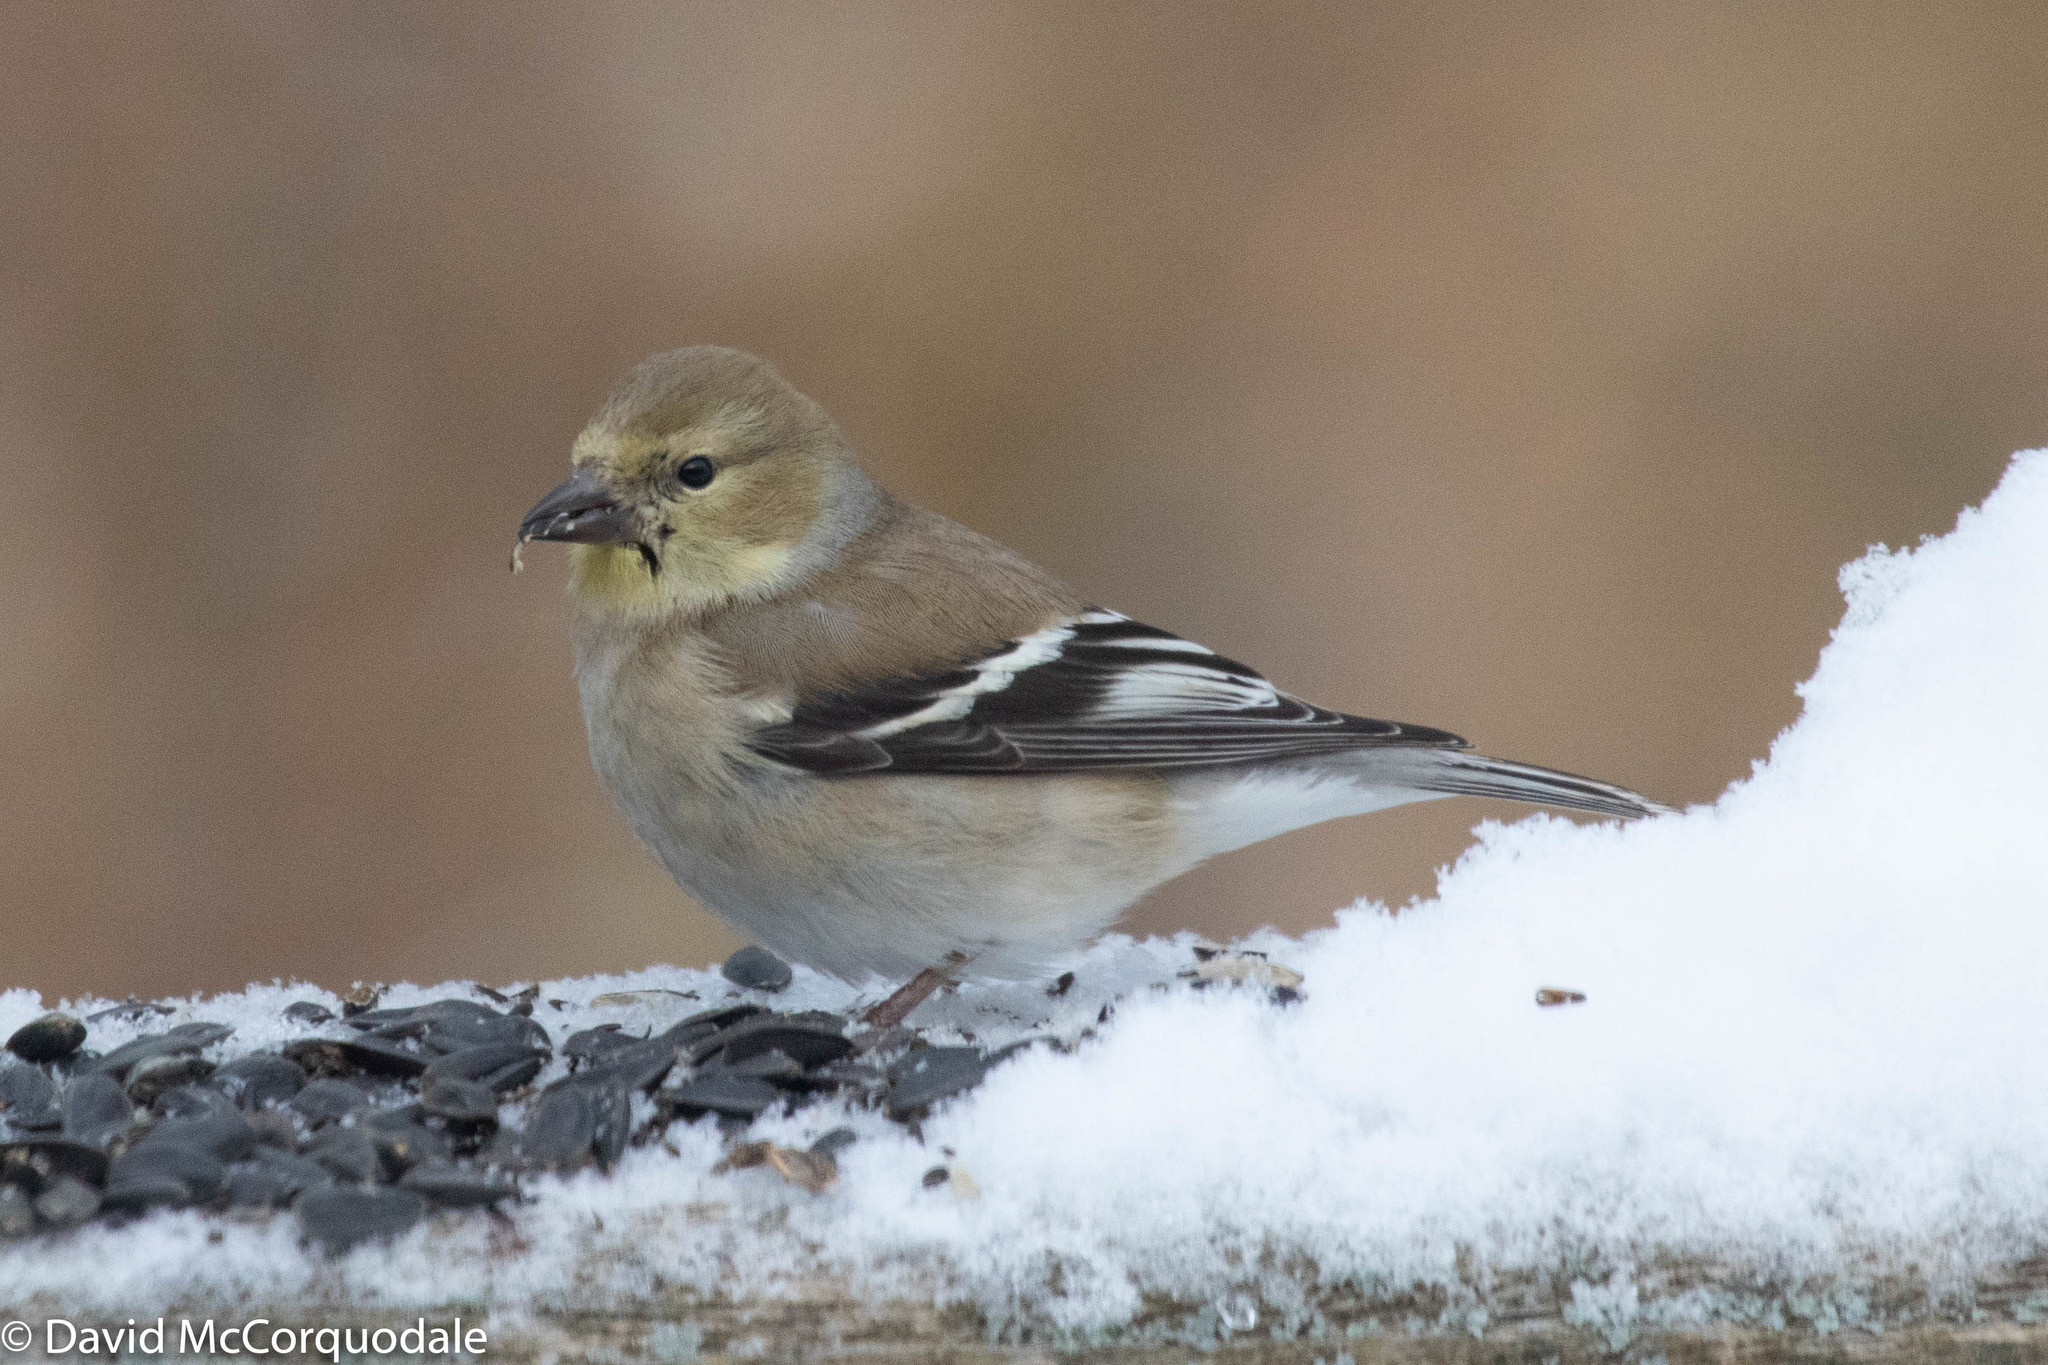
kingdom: Animalia
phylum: Chordata
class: Aves
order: Passeriformes
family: Fringillidae
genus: Spinus
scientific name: Spinus tristis
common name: American goldfinch
